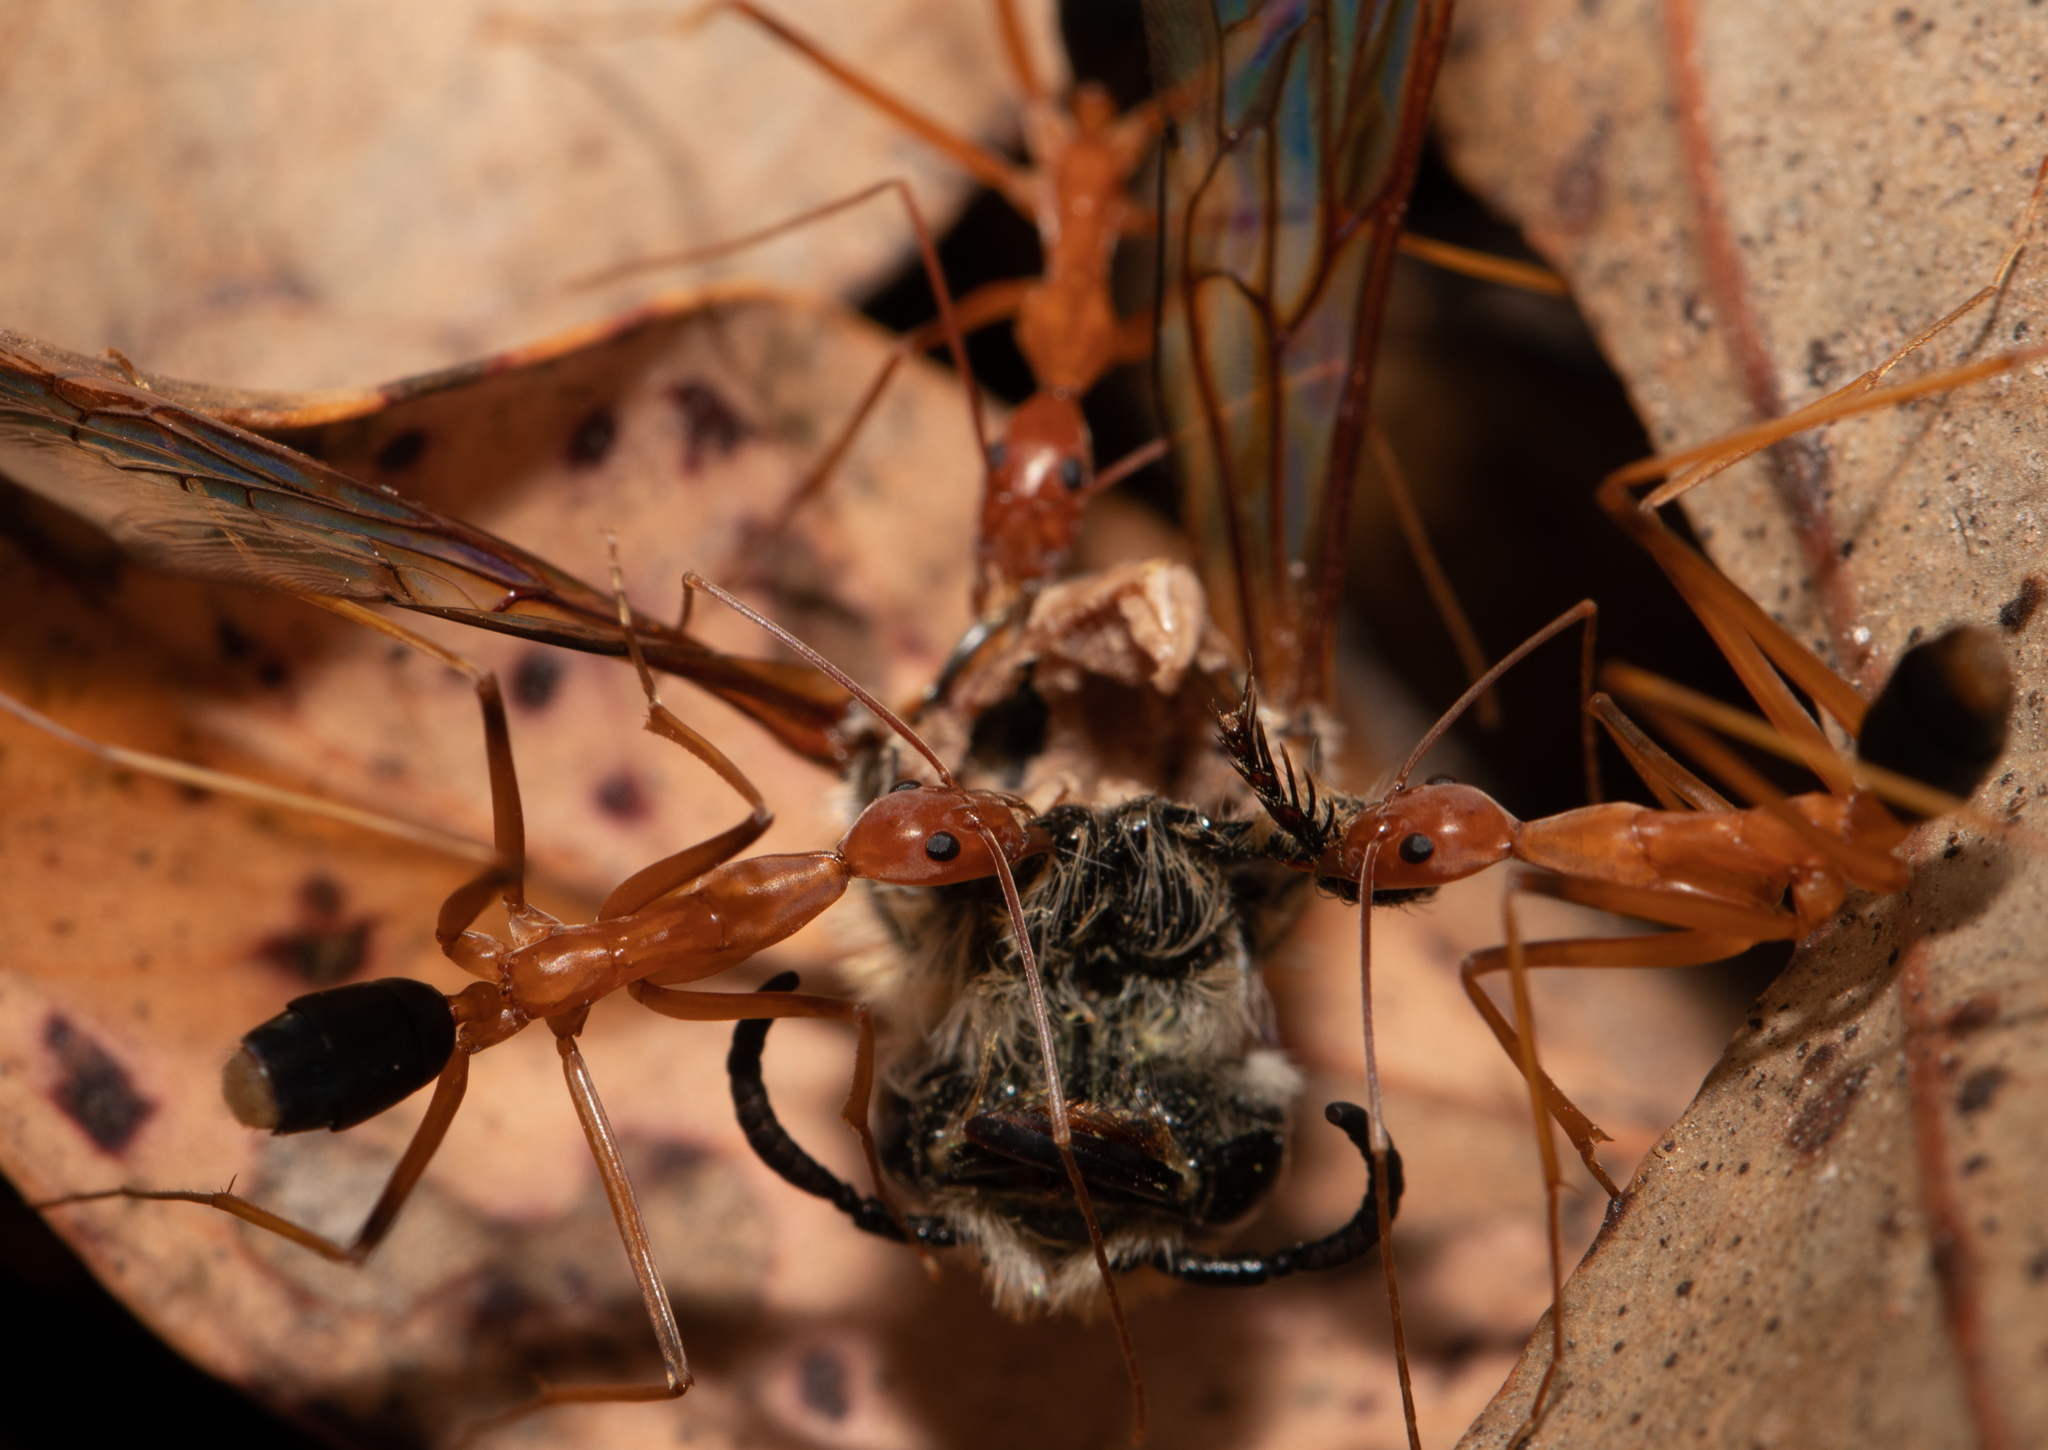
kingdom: Animalia
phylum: Arthropoda
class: Insecta
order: Hymenoptera
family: Formicidae
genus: Leptomyrmex
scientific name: Leptomyrmex rufipes
